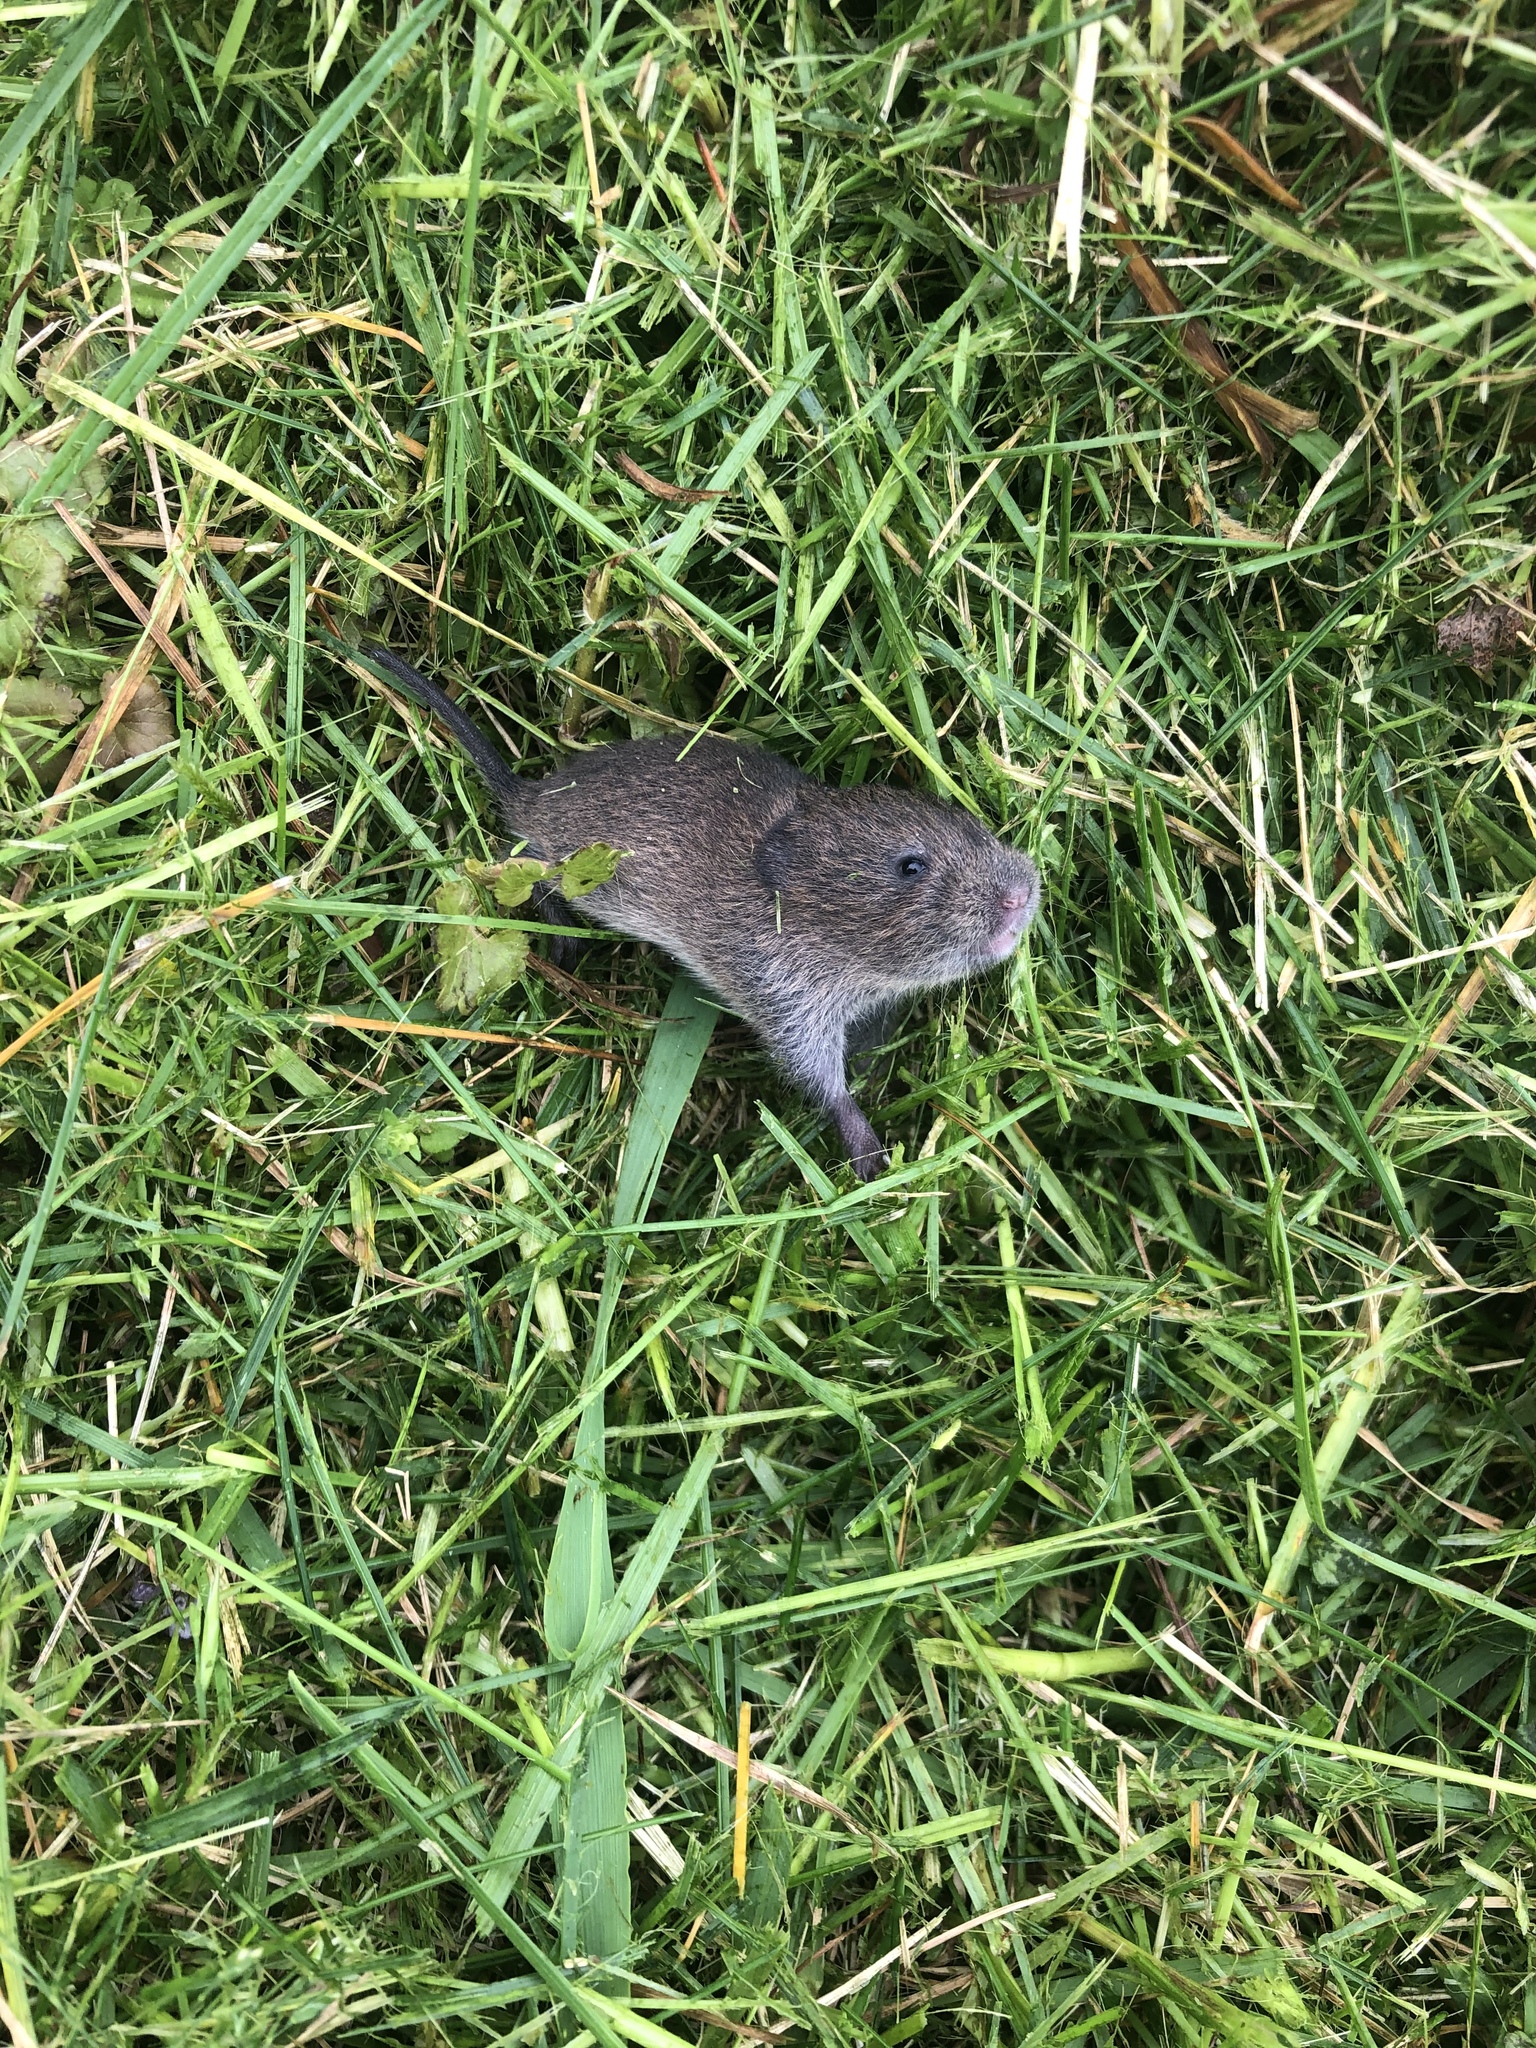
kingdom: Animalia
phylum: Chordata
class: Mammalia
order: Rodentia
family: Cricetidae
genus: Microtus
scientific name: Microtus pennsylvanicus
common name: Meadow vole
